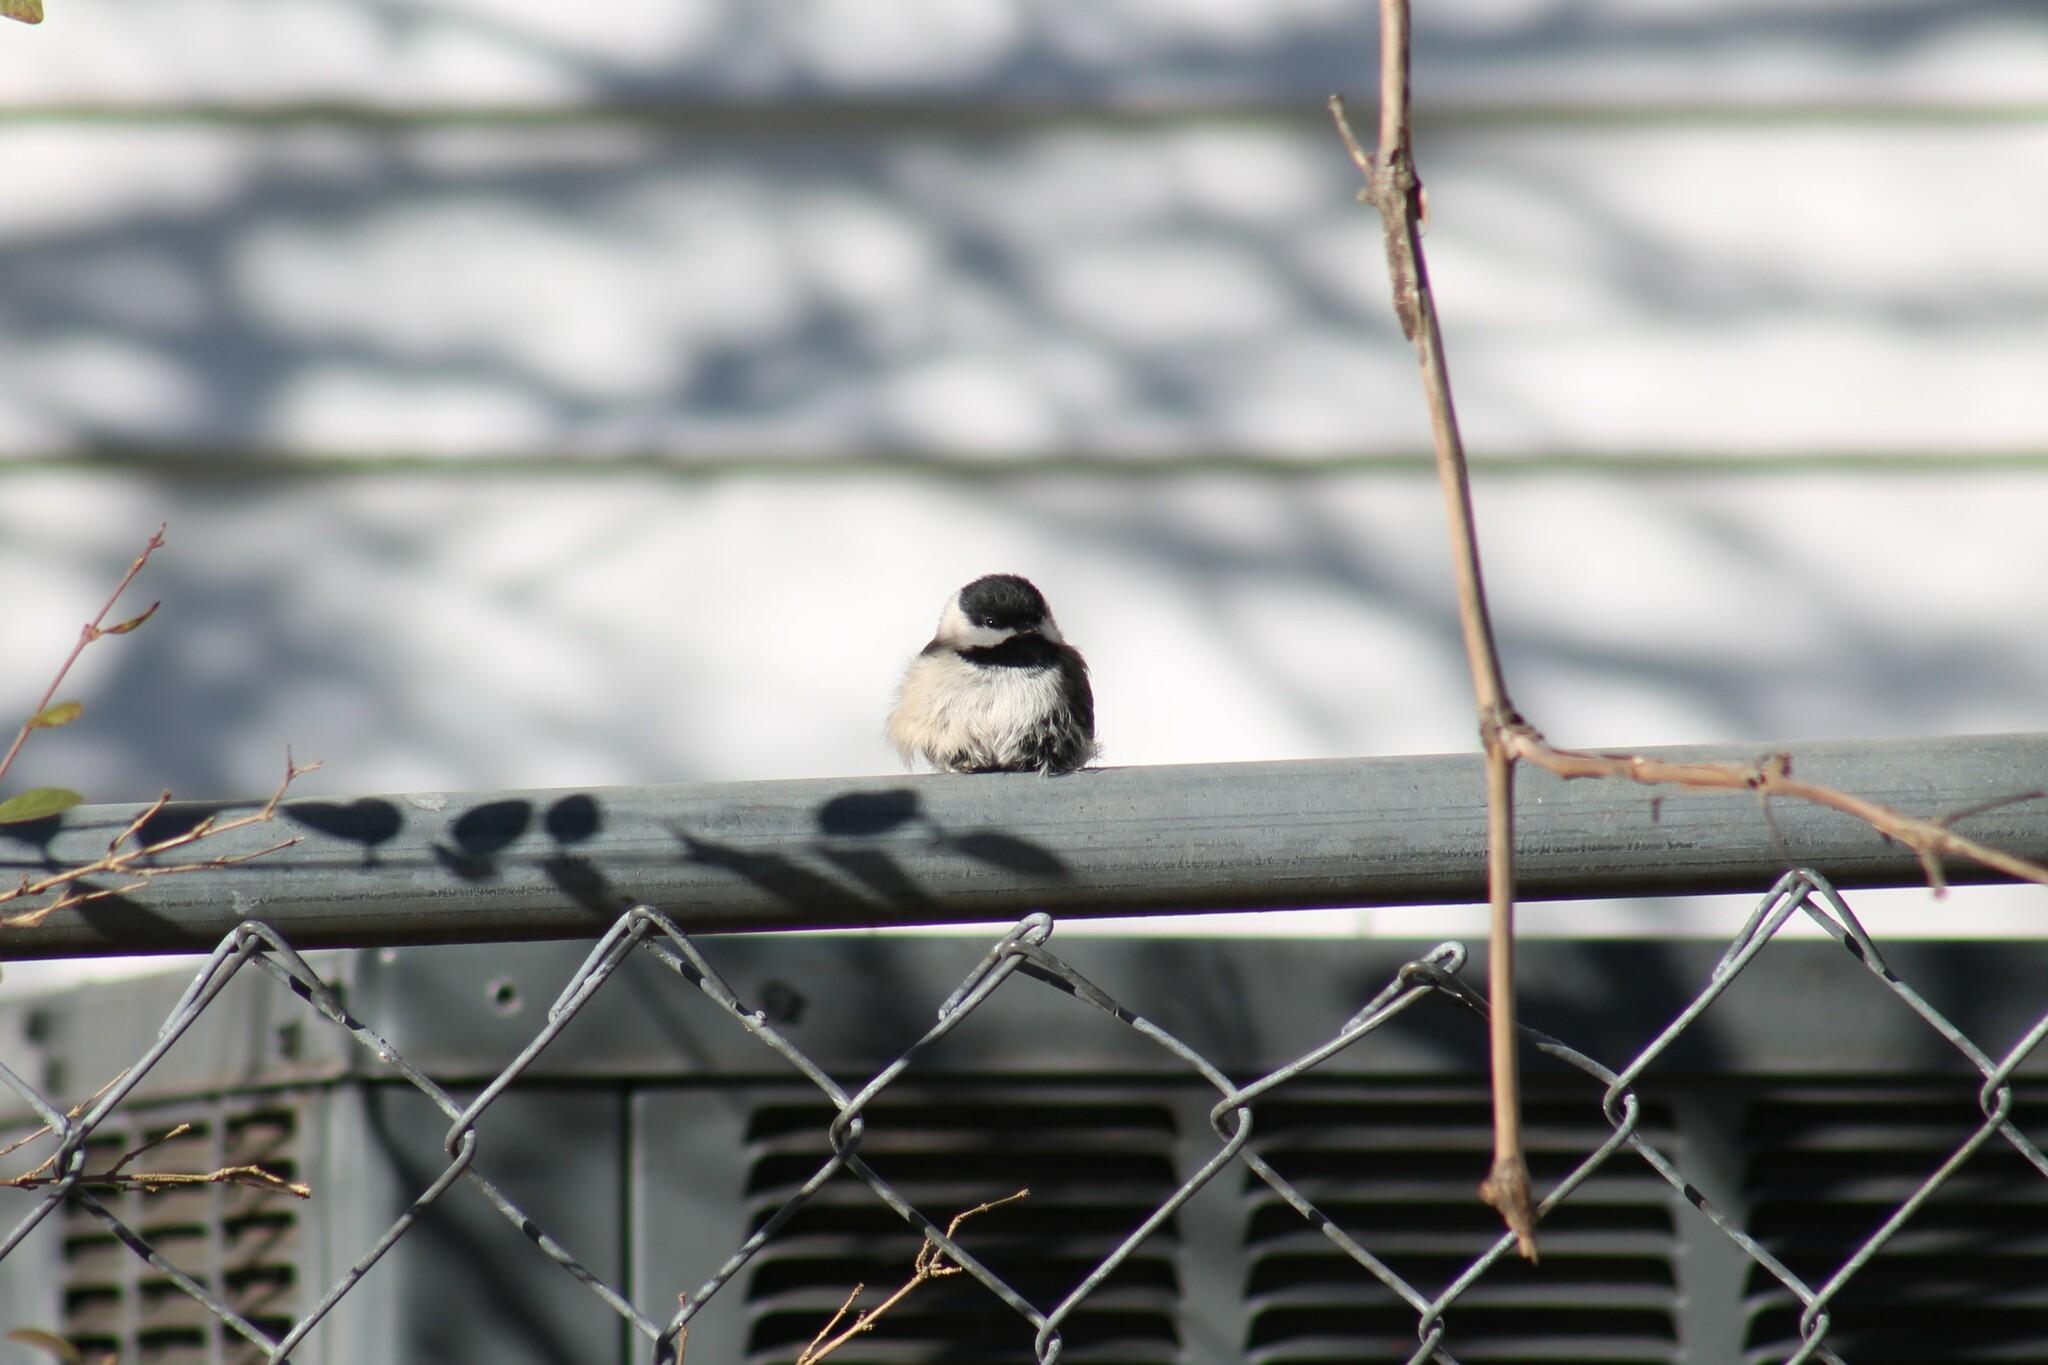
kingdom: Animalia
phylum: Chordata
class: Aves
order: Passeriformes
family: Paridae
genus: Poecile
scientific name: Poecile carolinensis
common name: Carolina chickadee
